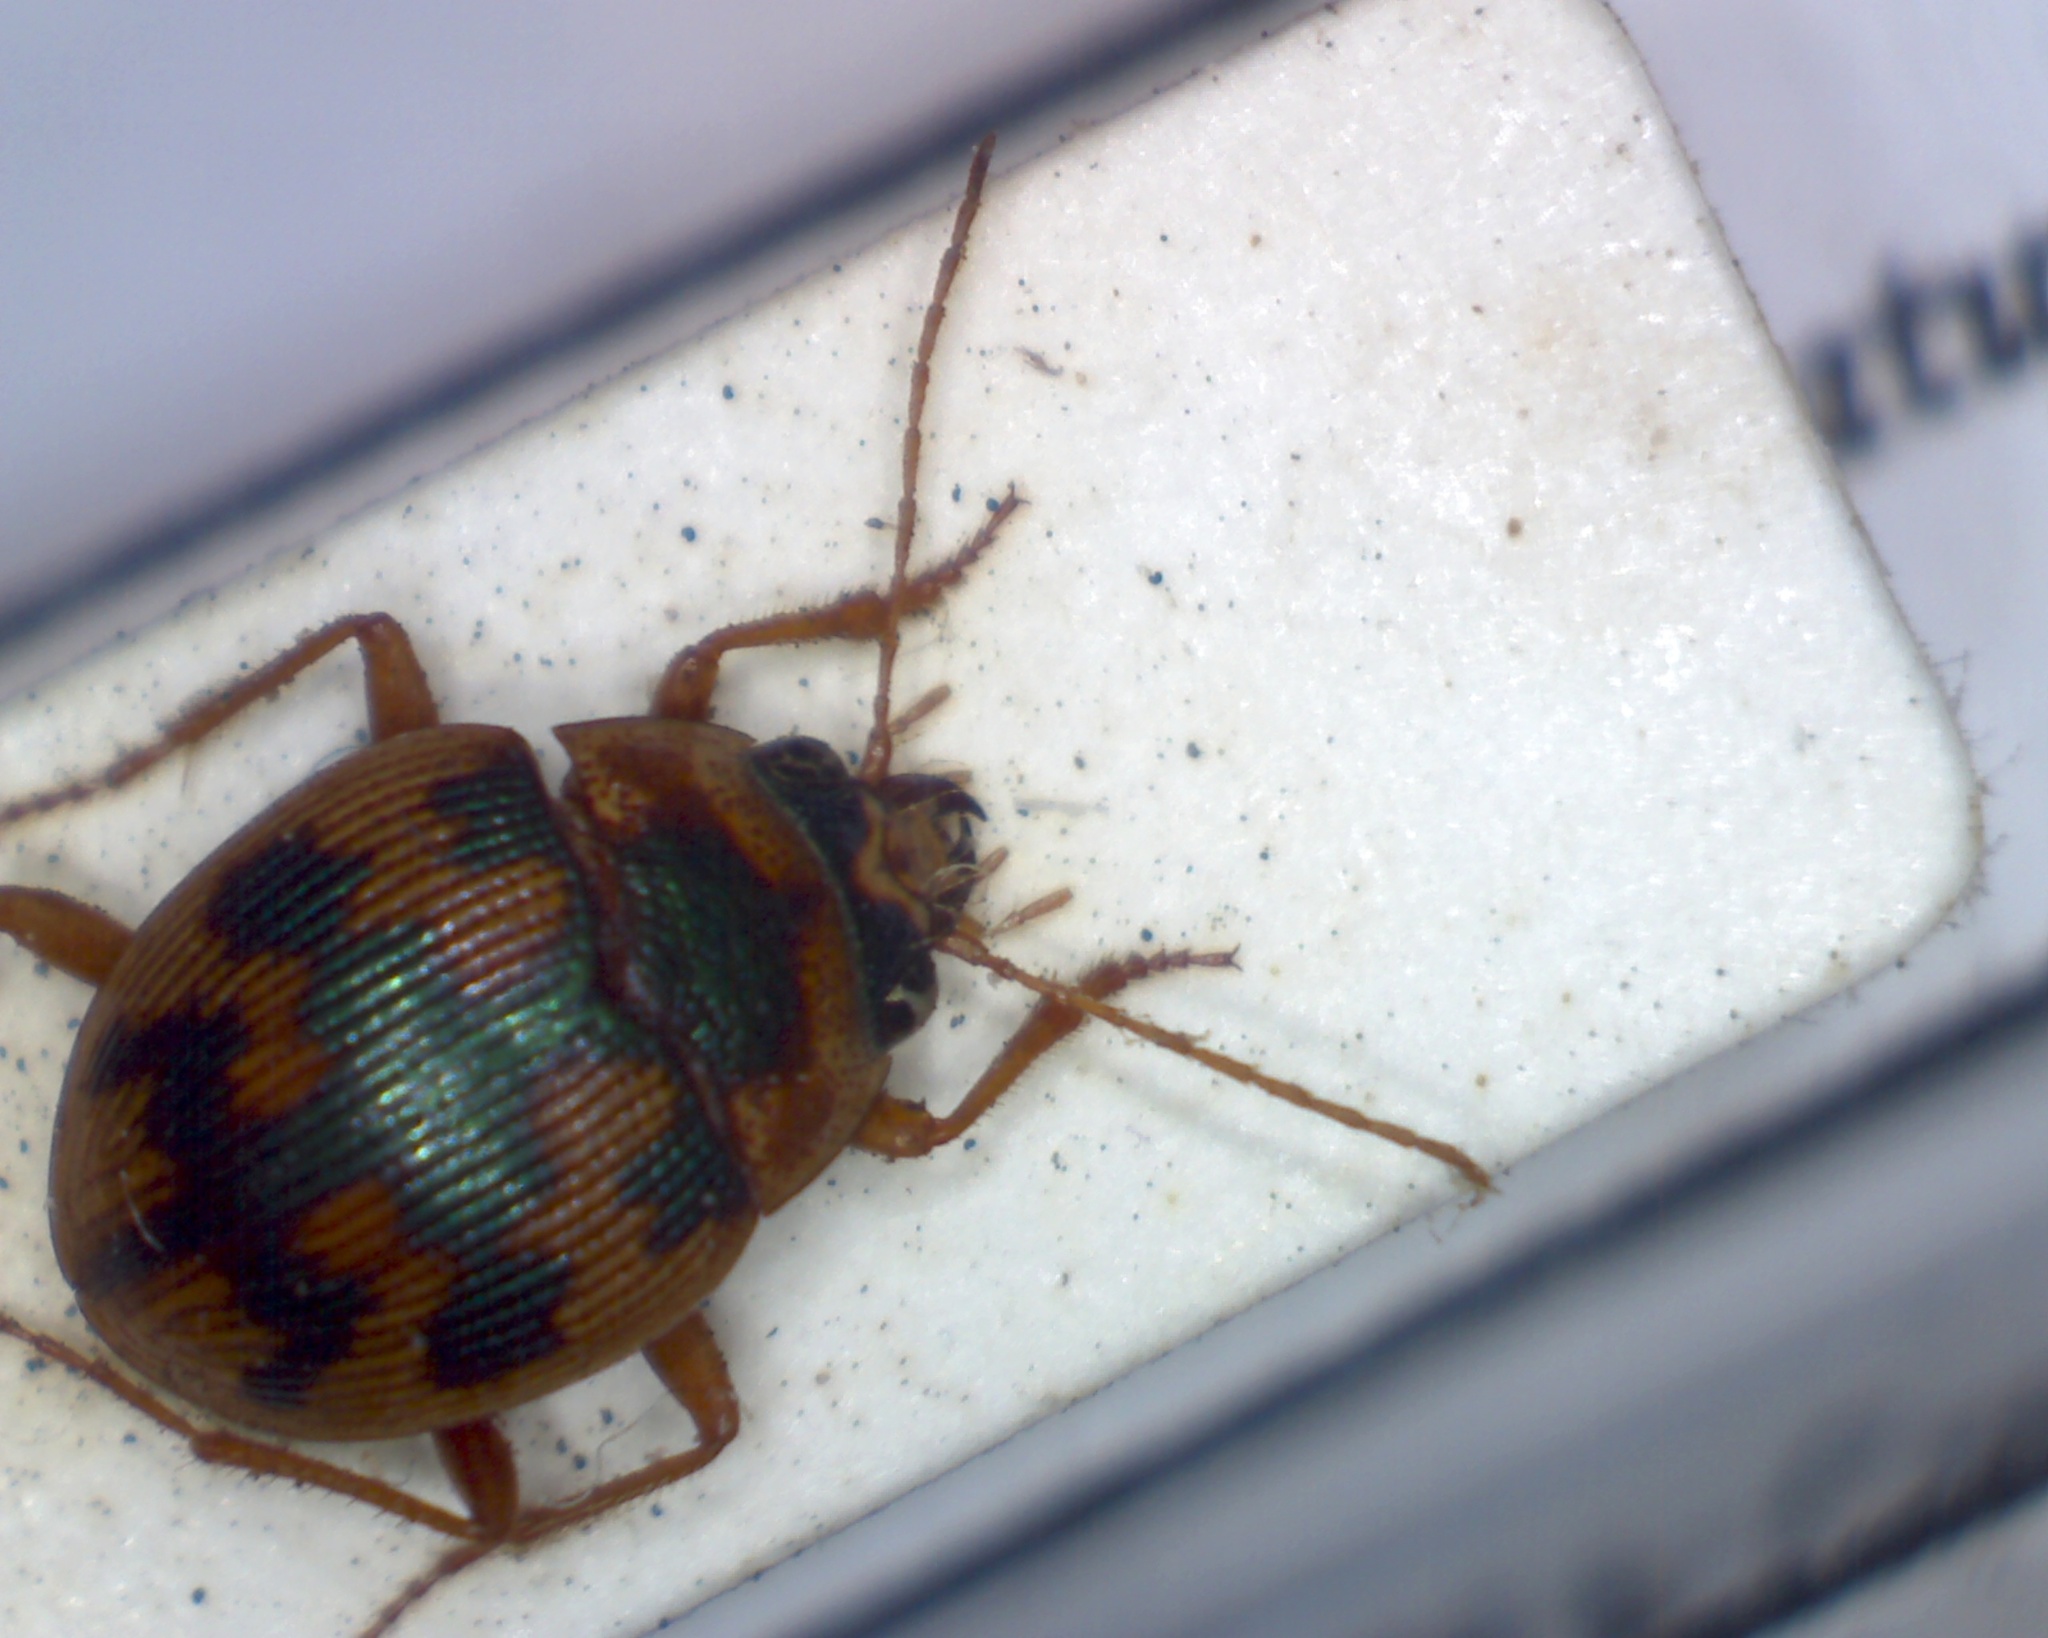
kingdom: Animalia
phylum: Arthropoda
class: Insecta
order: Coleoptera
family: Carabidae
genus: Omophron
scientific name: Omophron limbatum
